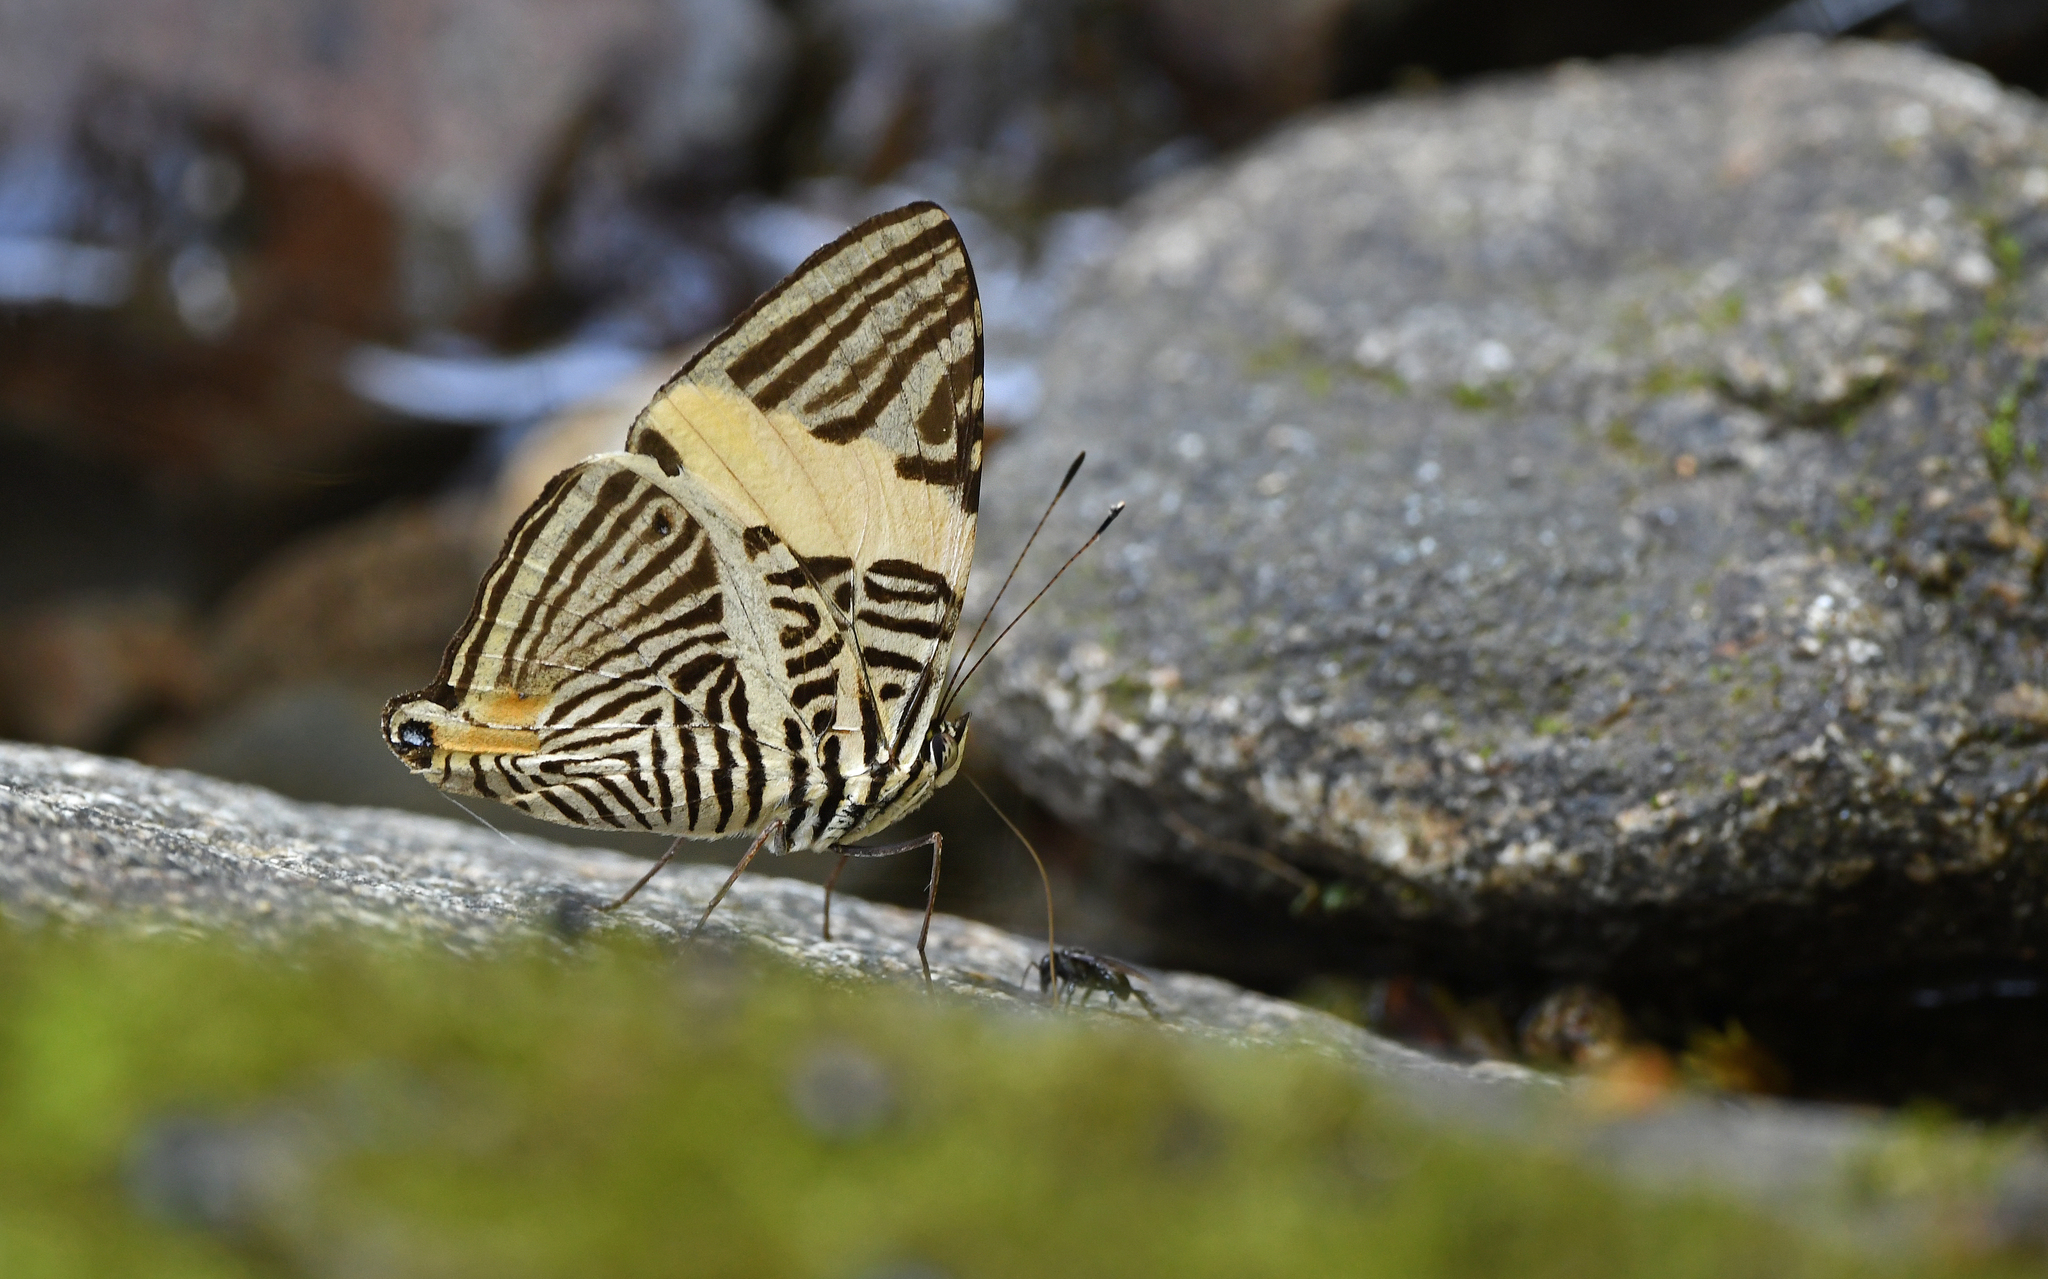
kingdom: Animalia
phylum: Arthropoda
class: Insecta
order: Lepidoptera
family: Nymphalidae
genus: Colobura
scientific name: Colobura annulata
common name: New beauty
